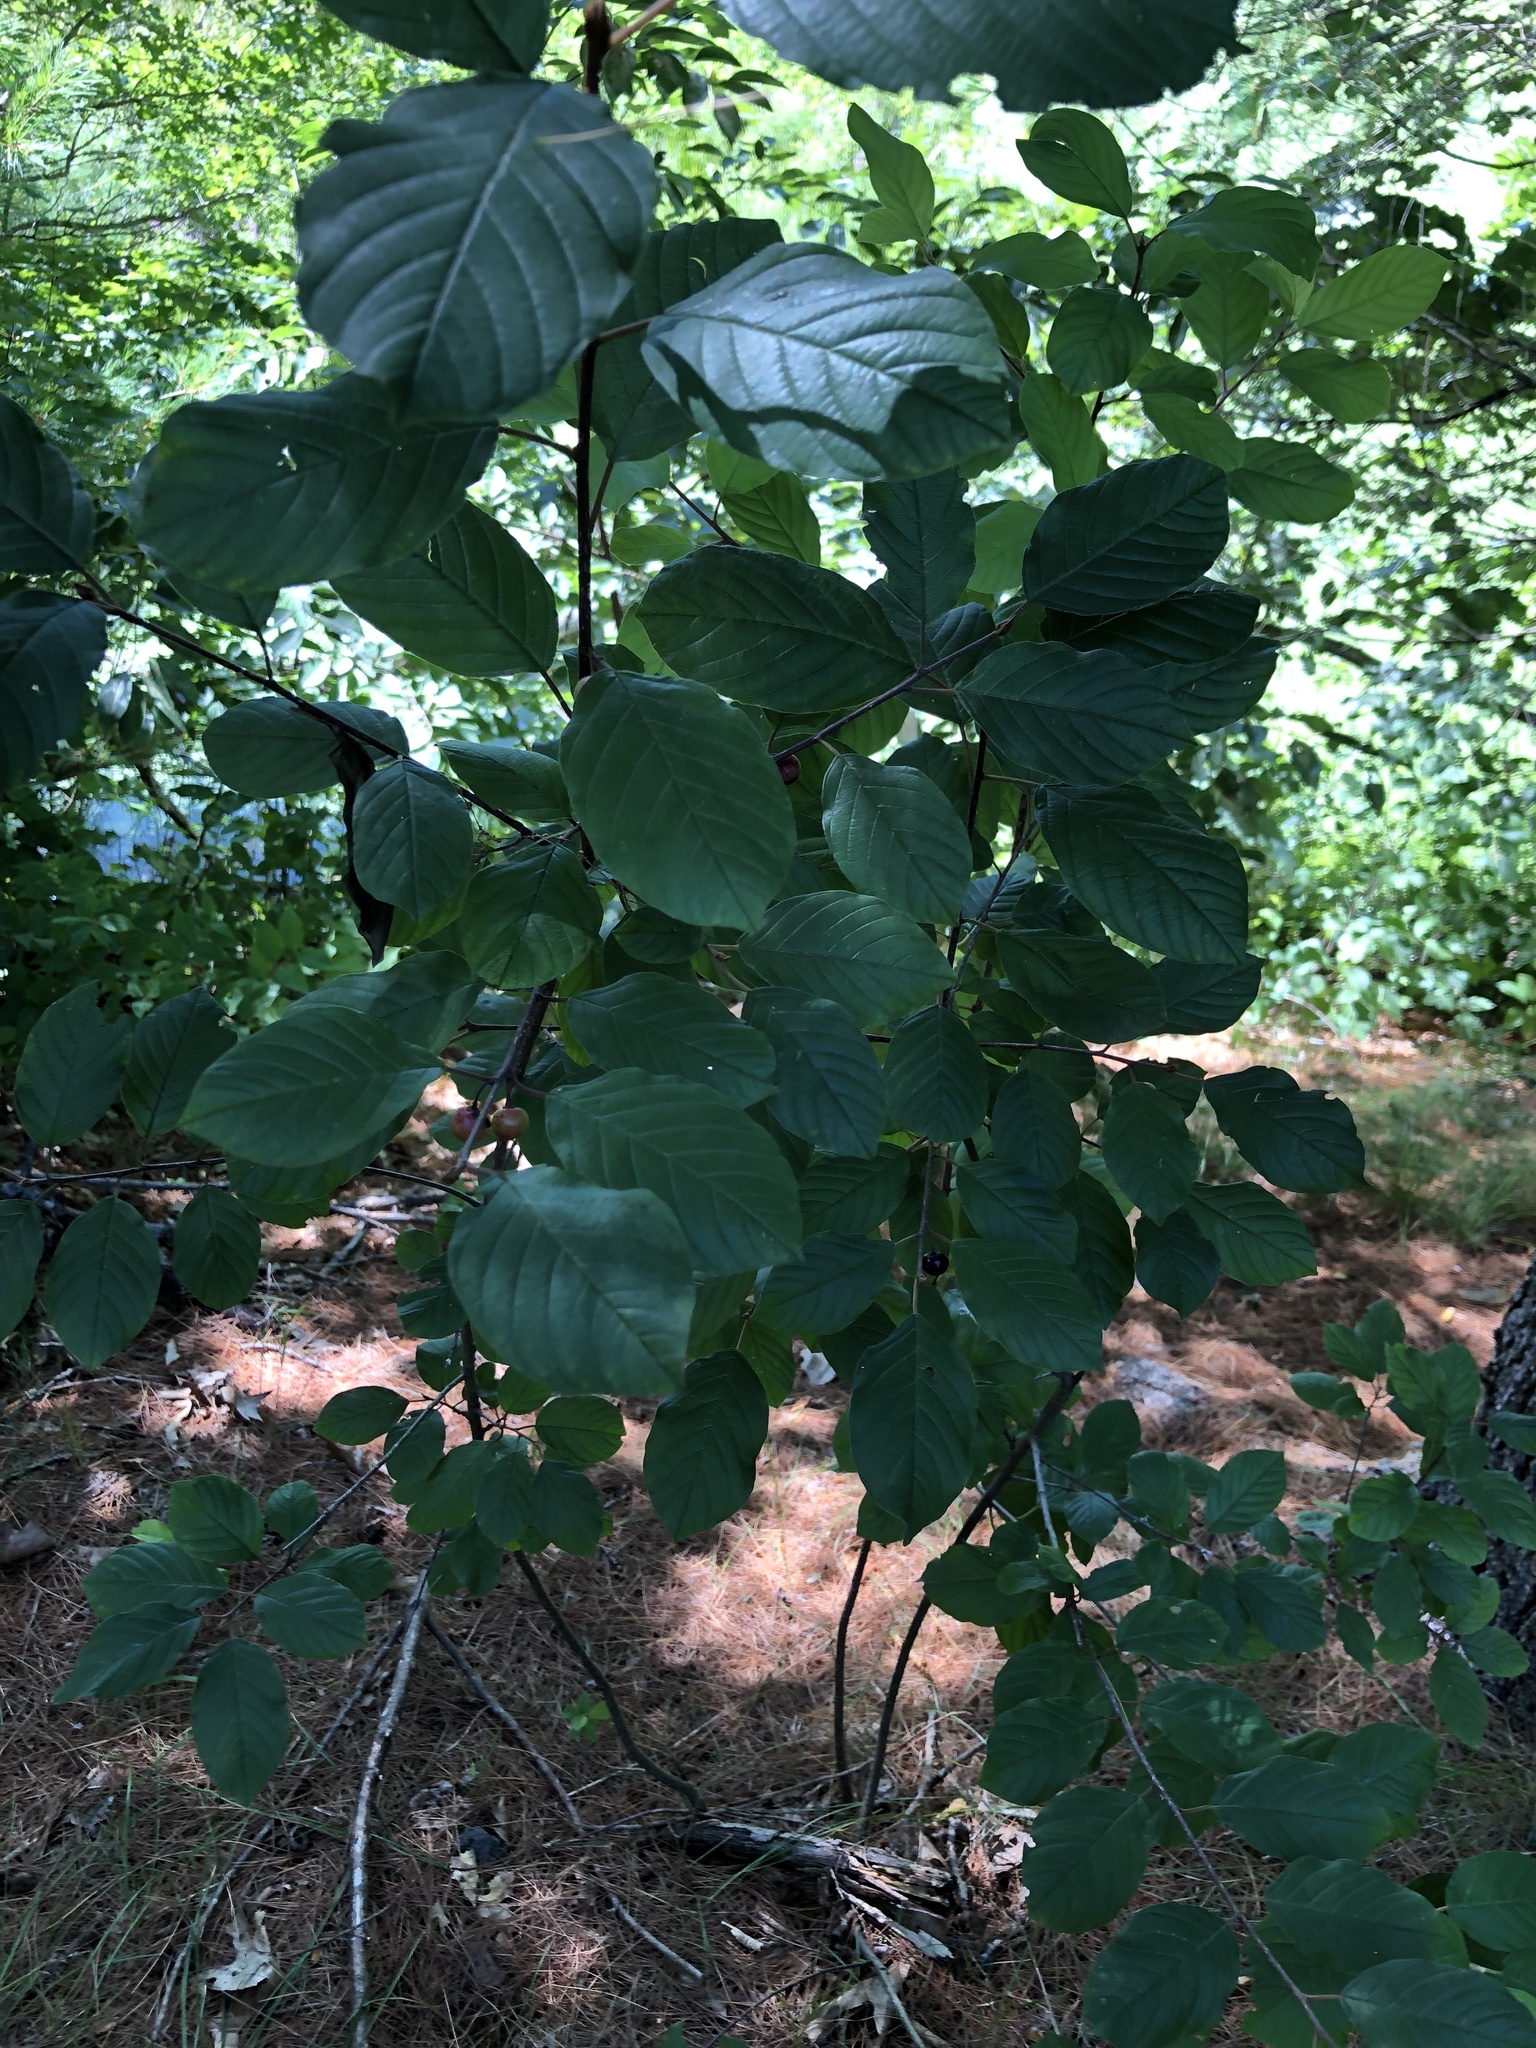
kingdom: Plantae
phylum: Tracheophyta
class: Magnoliopsida
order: Rosales
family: Rhamnaceae
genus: Frangula
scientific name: Frangula alnus
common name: Alder buckthorn
